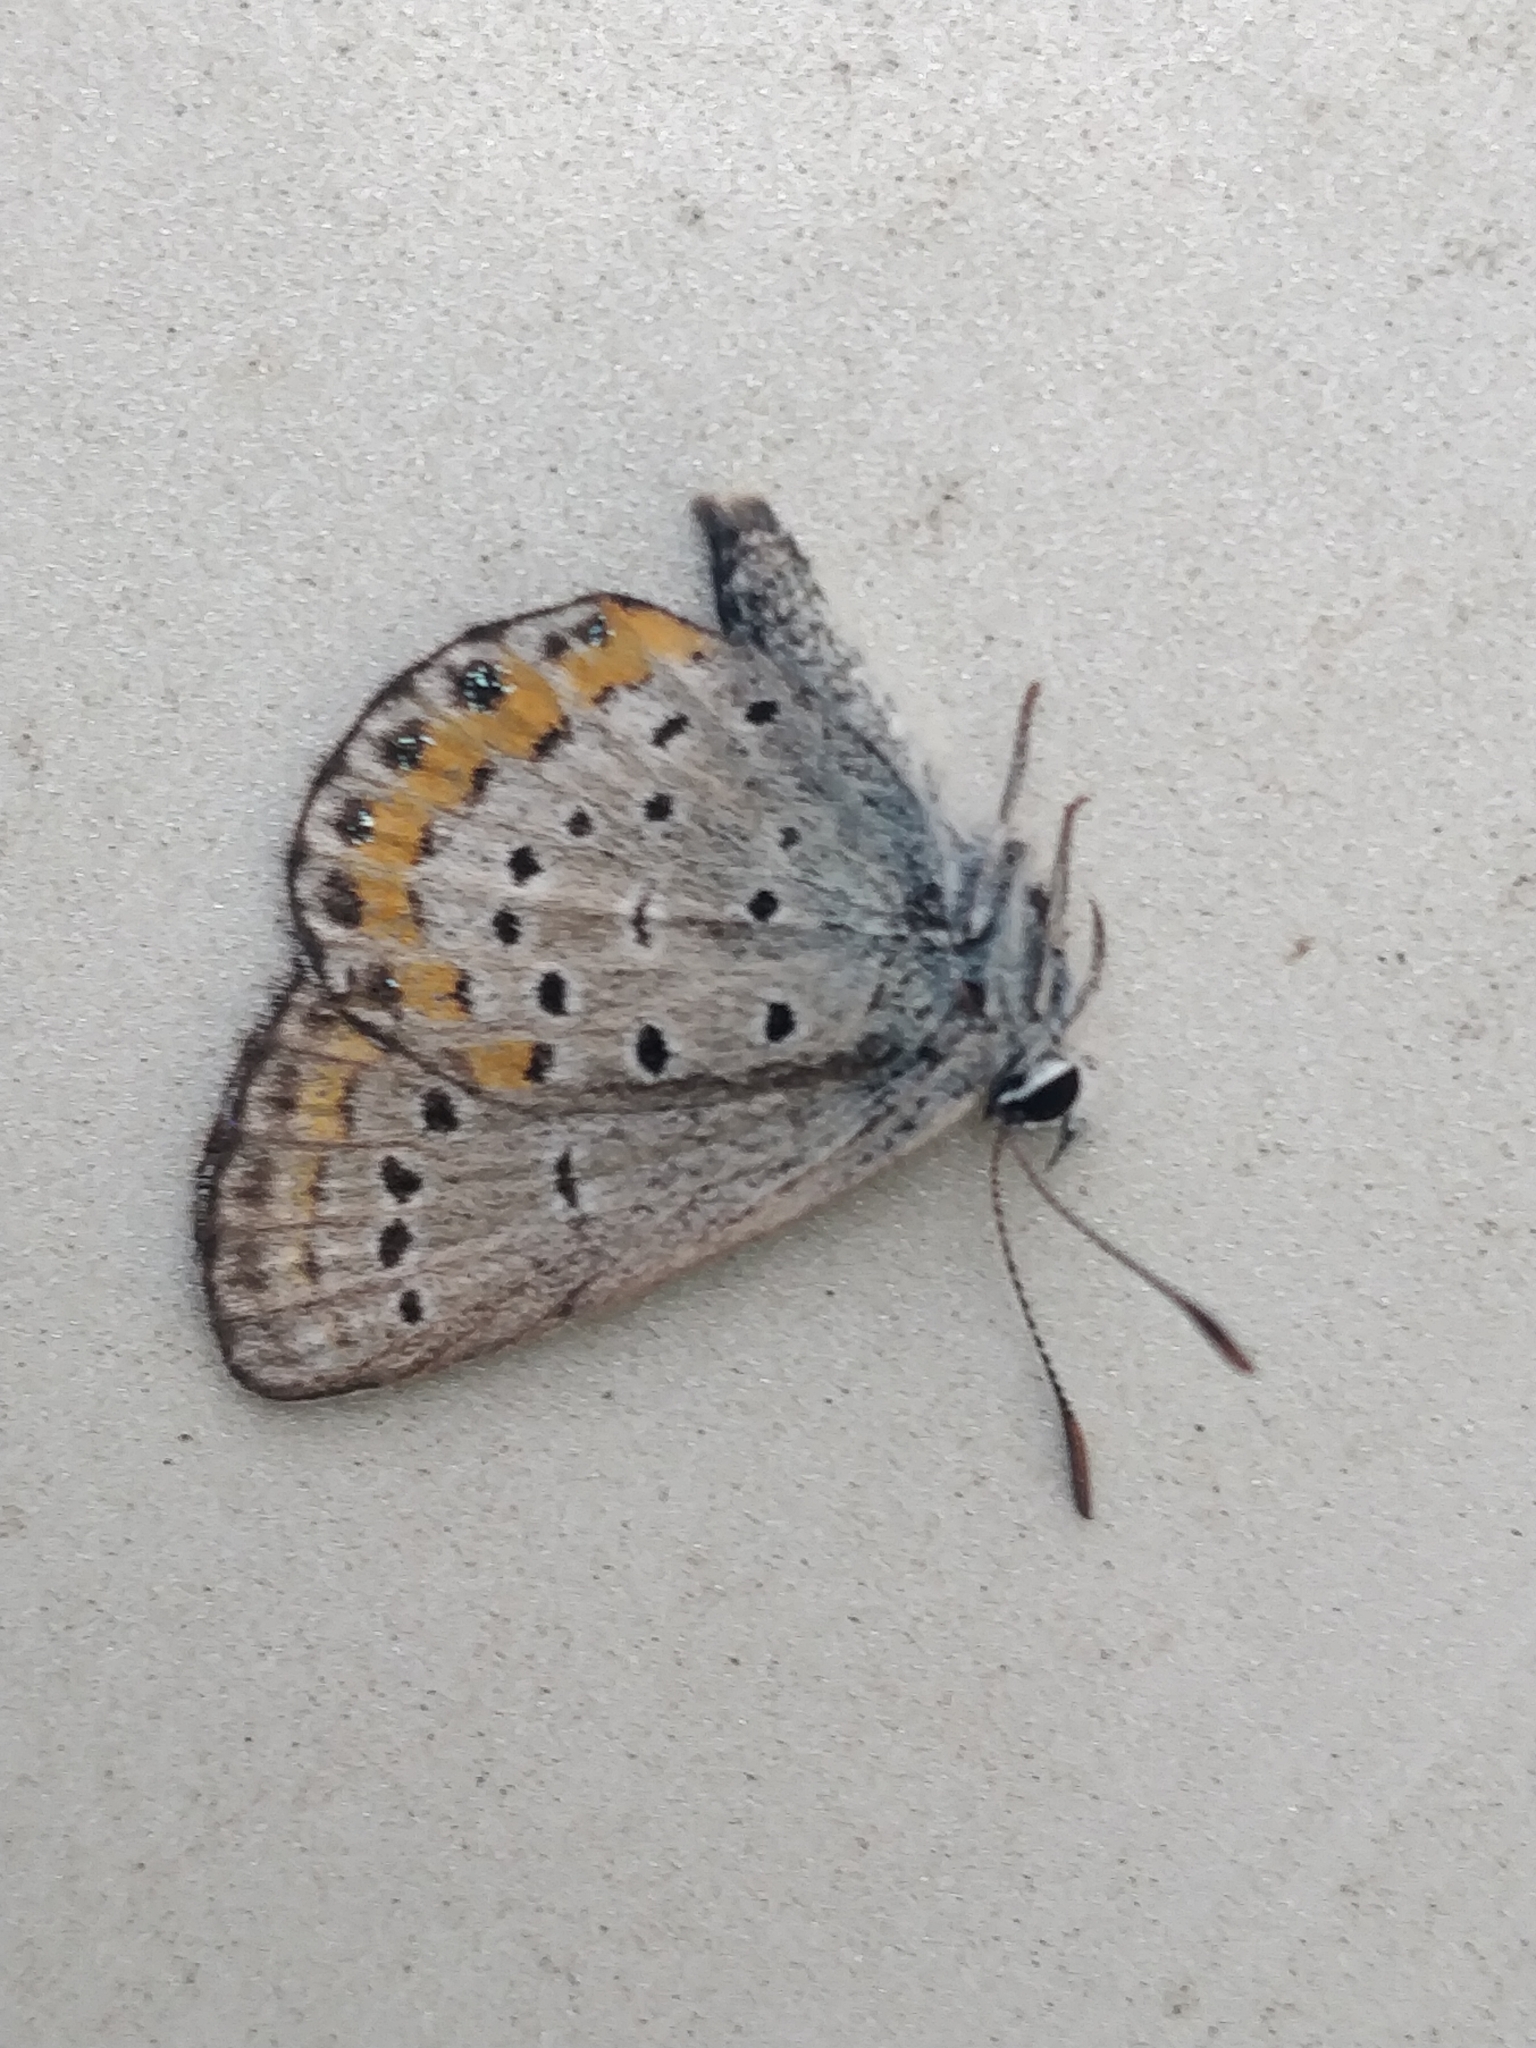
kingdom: Animalia
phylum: Arthropoda
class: Insecta
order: Lepidoptera
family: Lycaenidae
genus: Lycaeides
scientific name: Lycaeides melissa
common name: Melissa blue
